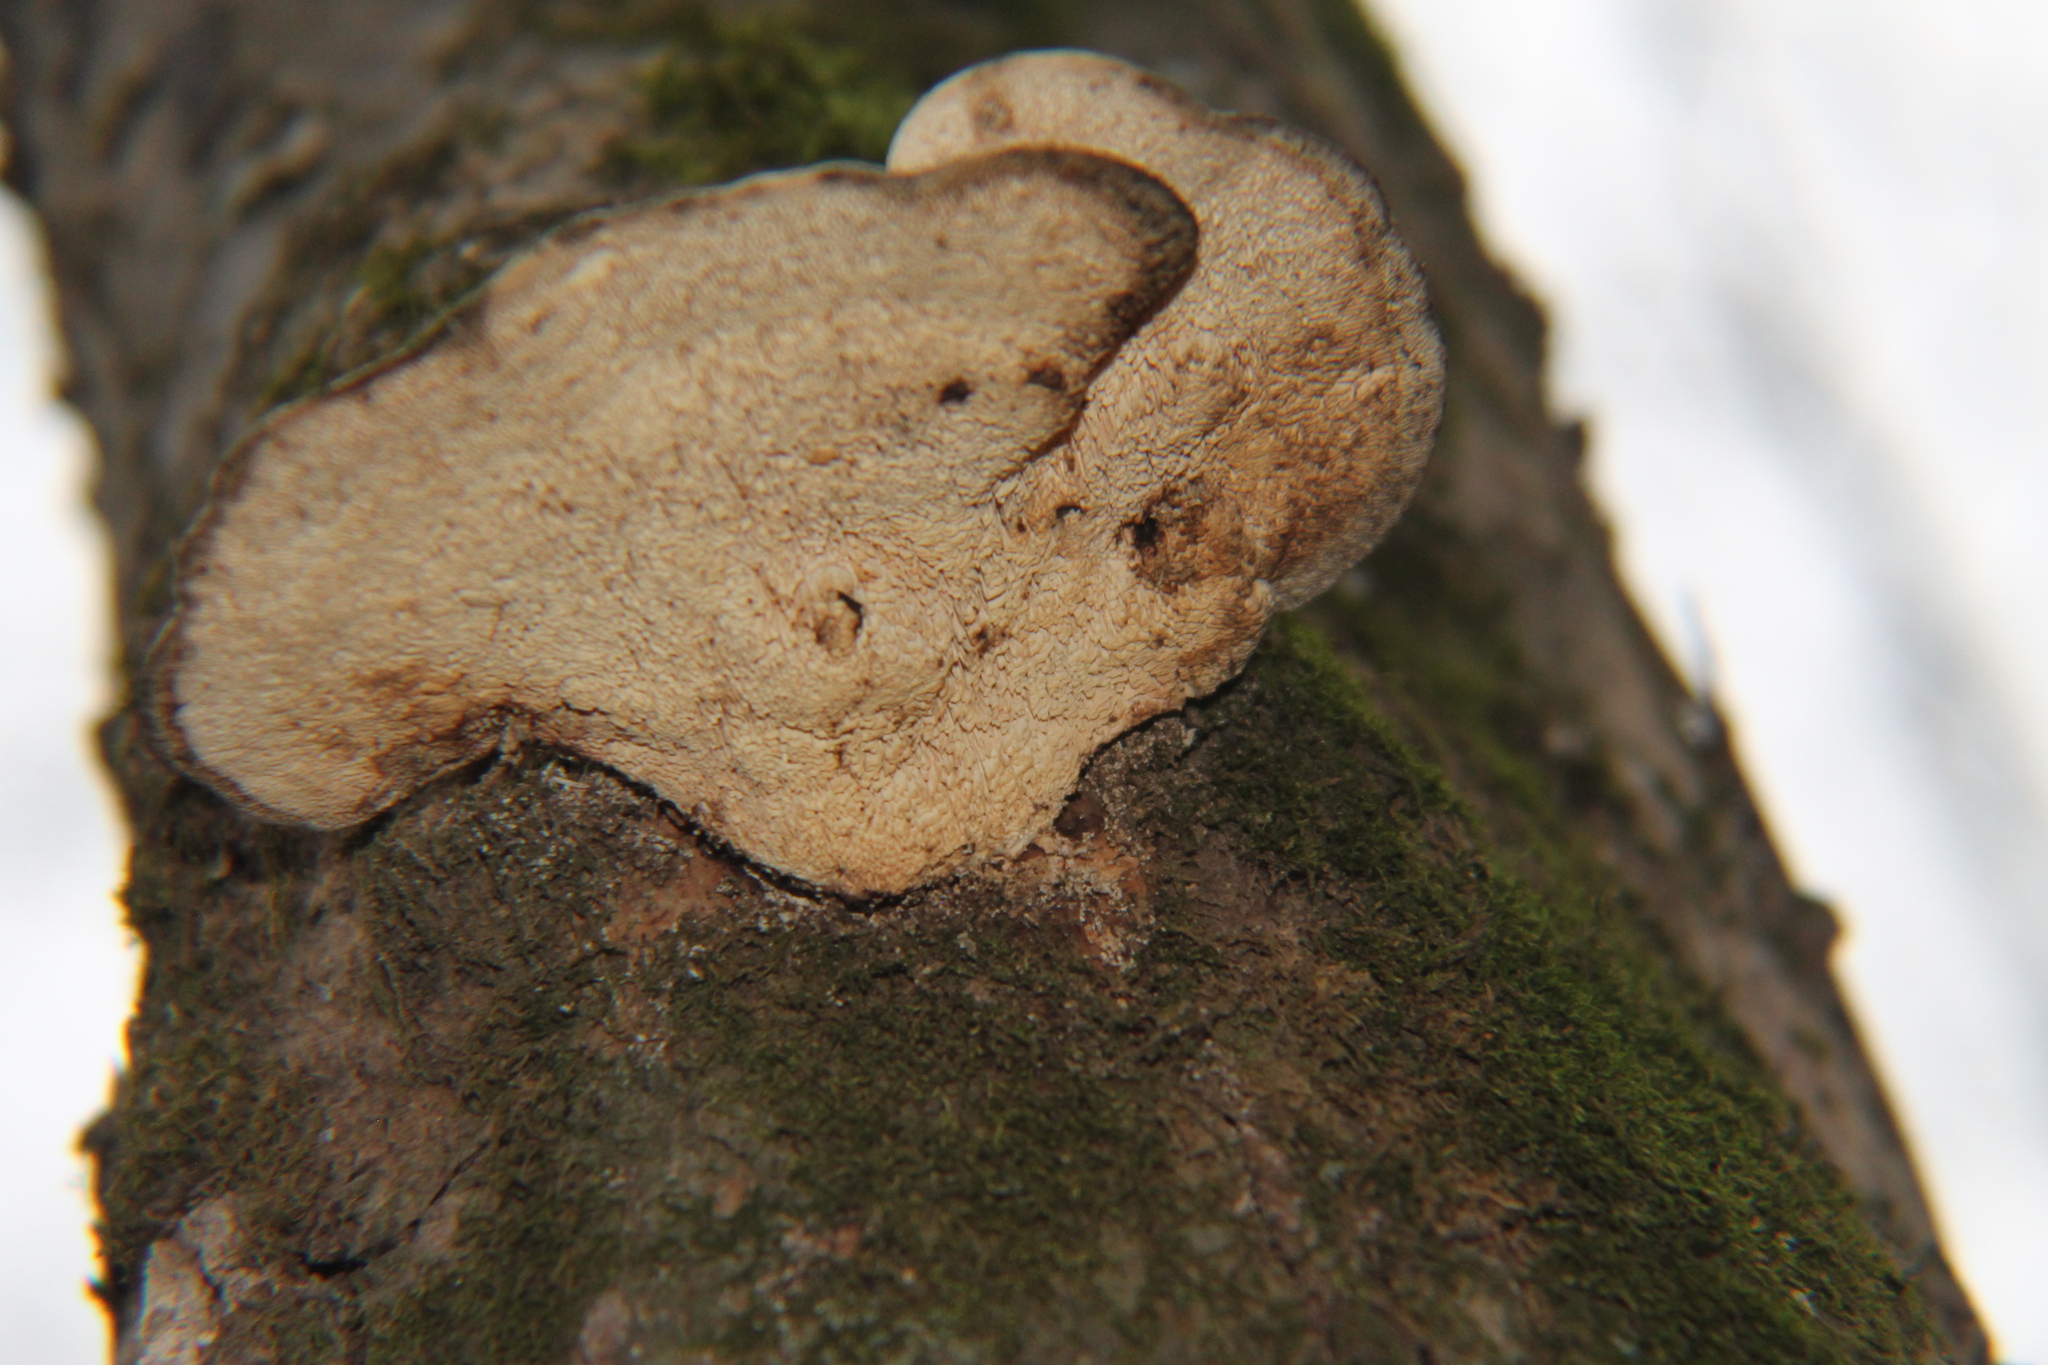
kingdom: Fungi
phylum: Basidiomycota
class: Agaricomycetes
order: Polyporales
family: Polyporaceae
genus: Trametes
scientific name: Trametes gibbosa
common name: Lumpy bracket
